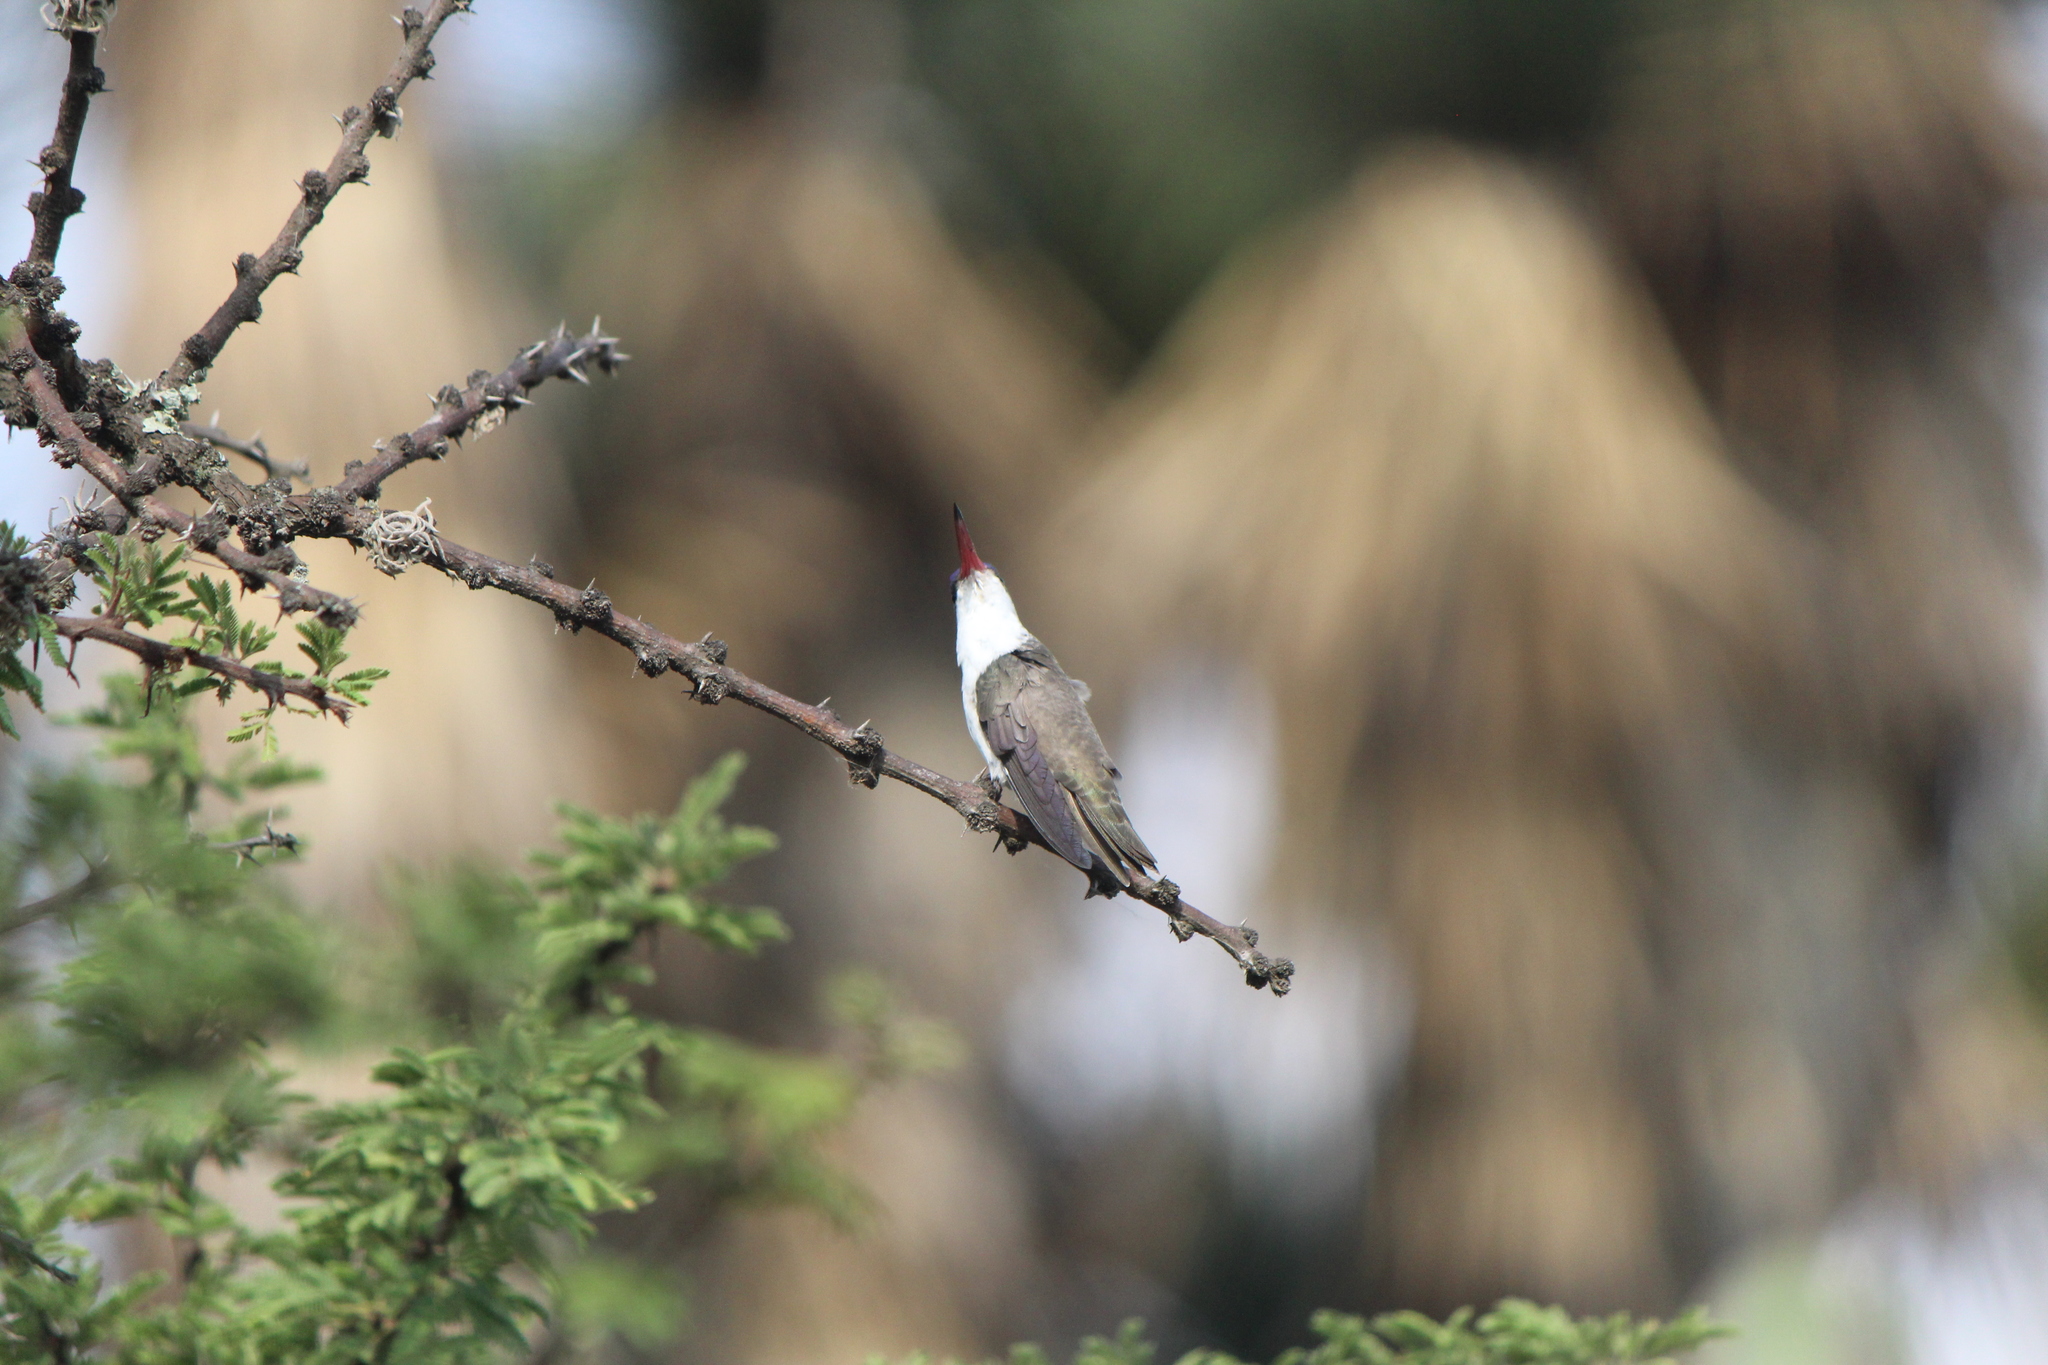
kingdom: Animalia
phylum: Chordata
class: Aves
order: Apodiformes
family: Trochilidae
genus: Leucolia
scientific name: Leucolia violiceps
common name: Violet-crowned hummingbird
